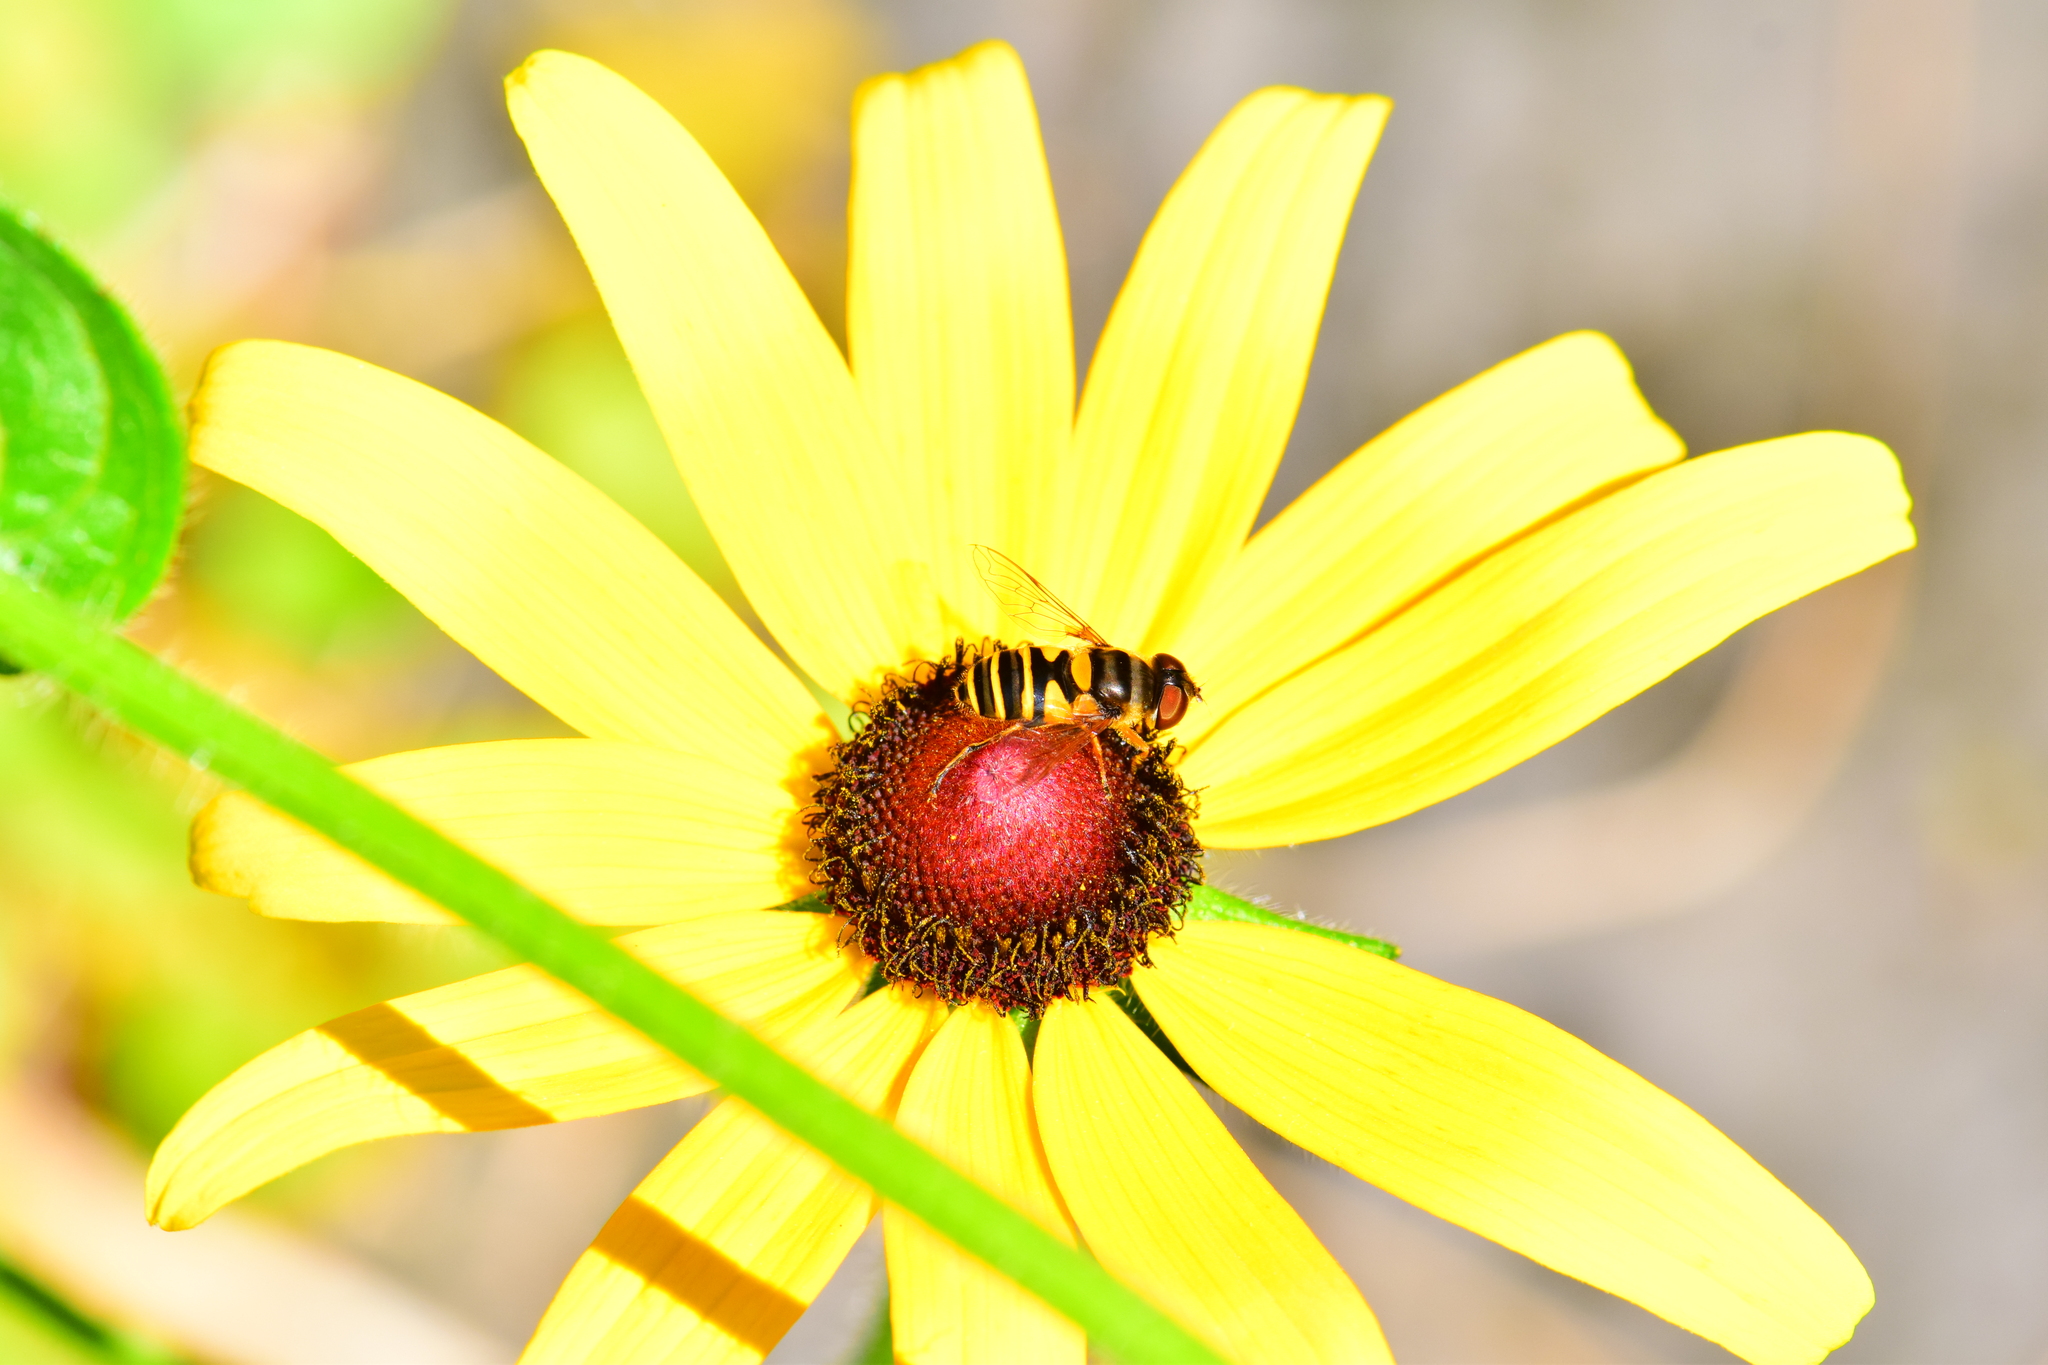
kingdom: Animalia
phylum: Arthropoda
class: Insecta
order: Diptera
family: Syrphidae
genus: Eristalis
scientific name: Eristalis transversa
